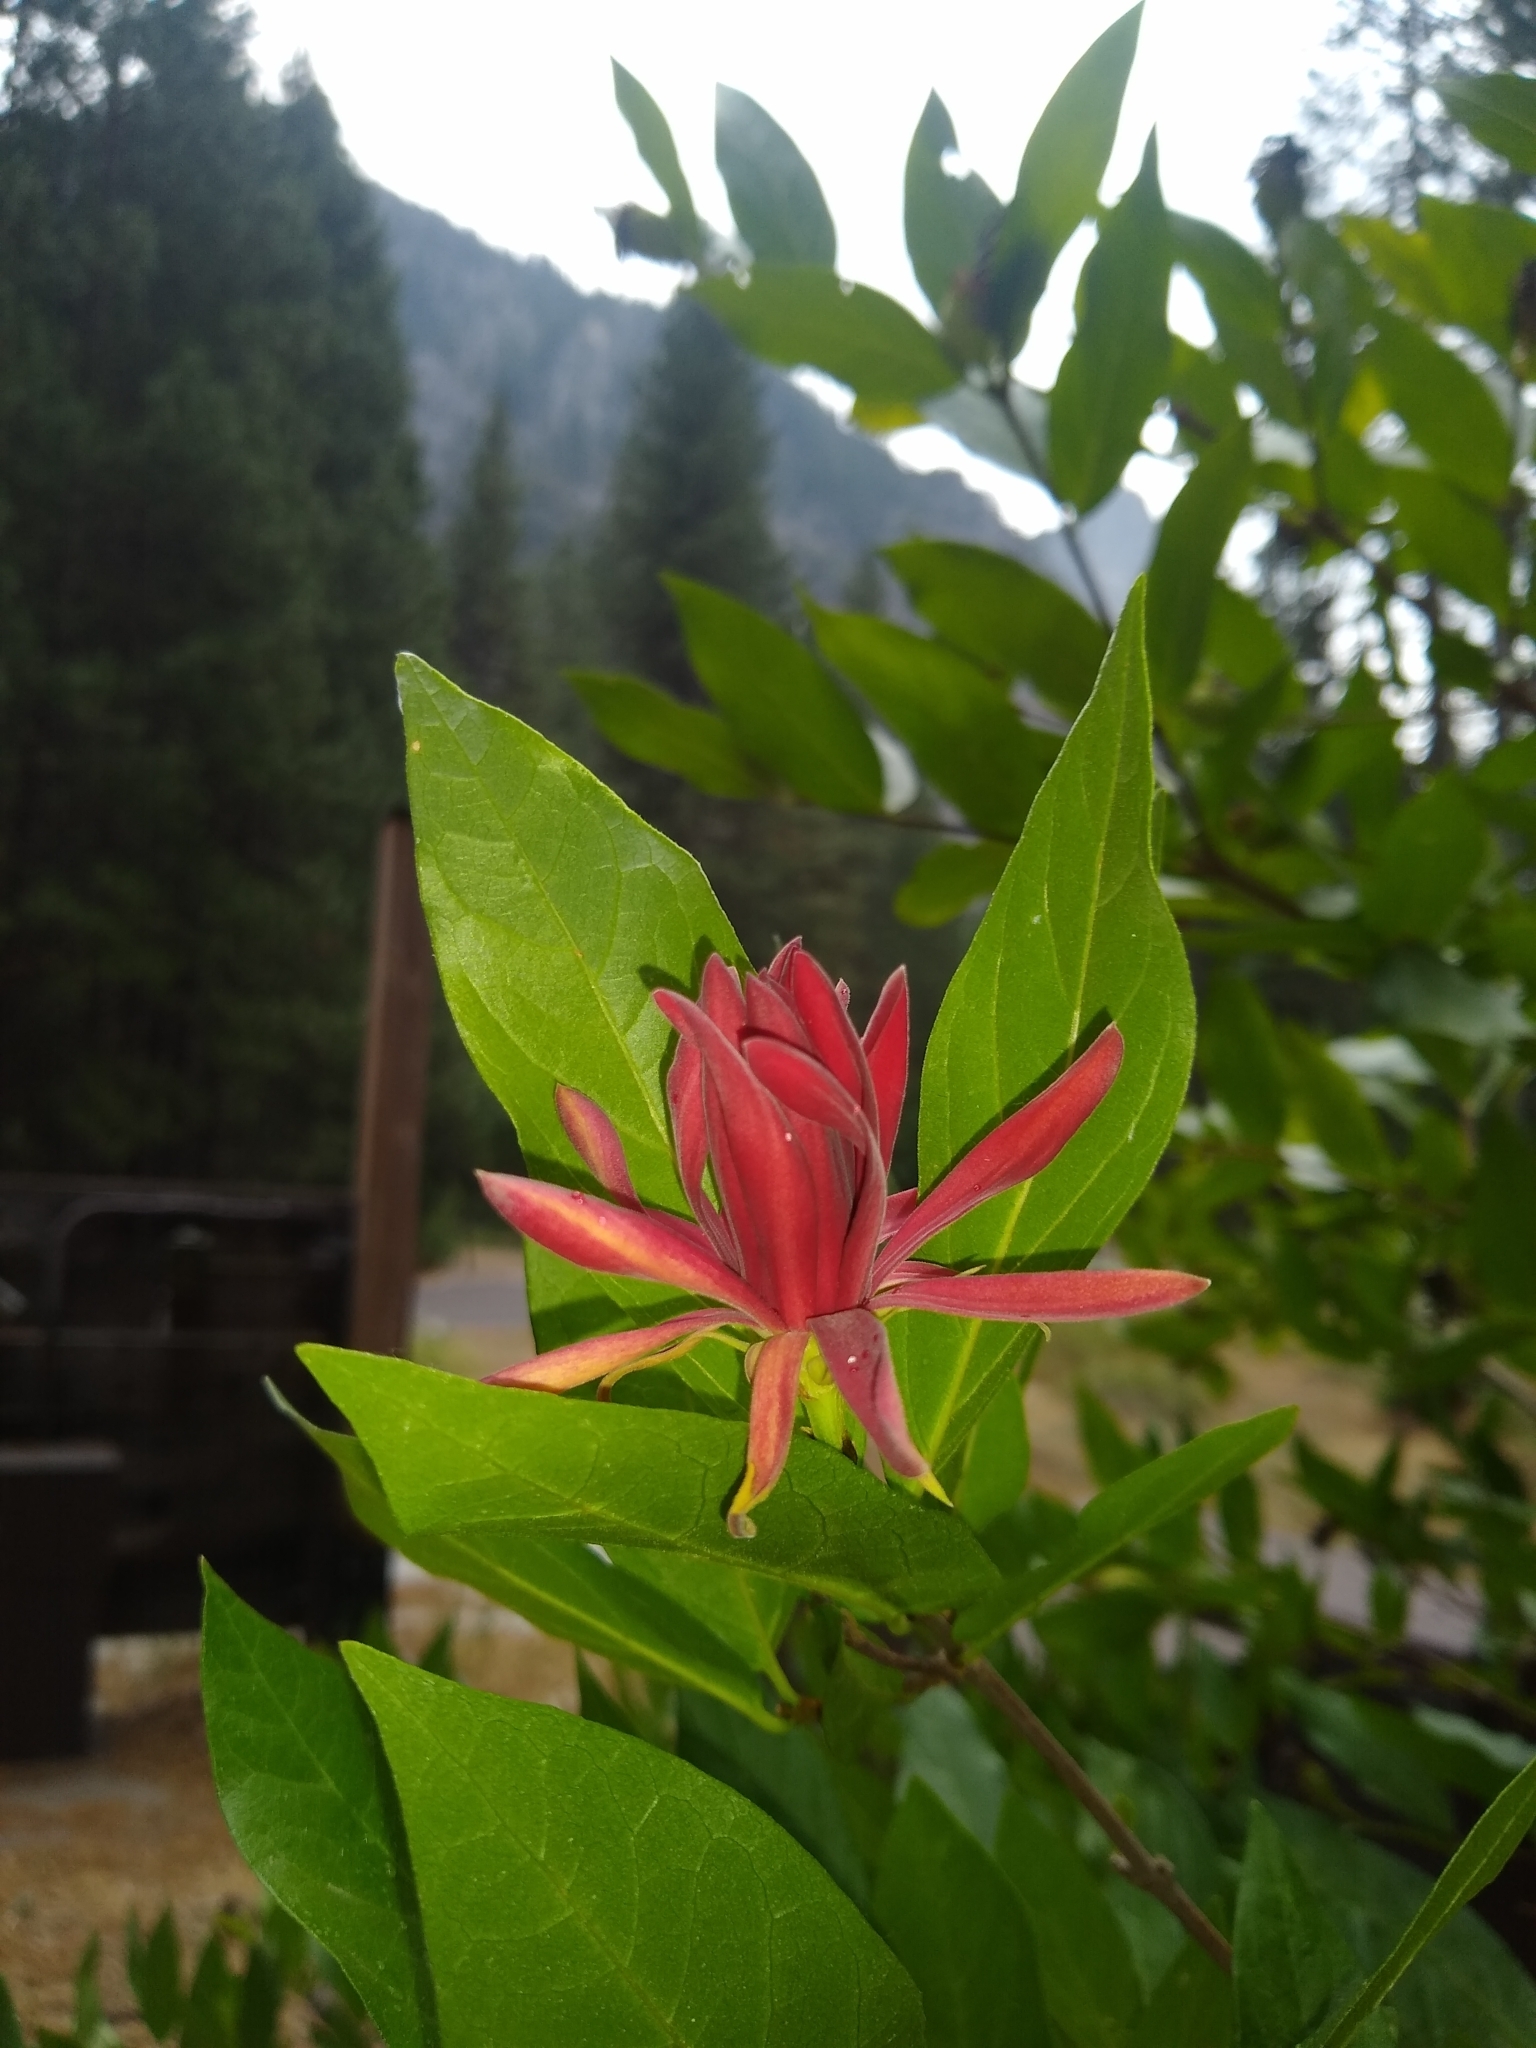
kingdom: Plantae
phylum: Tracheophyta
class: Magnoliopsida
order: Laurales
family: Calycanthaceae
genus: Calycanthus
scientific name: Calycanthus occidentalis
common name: California spicebush
